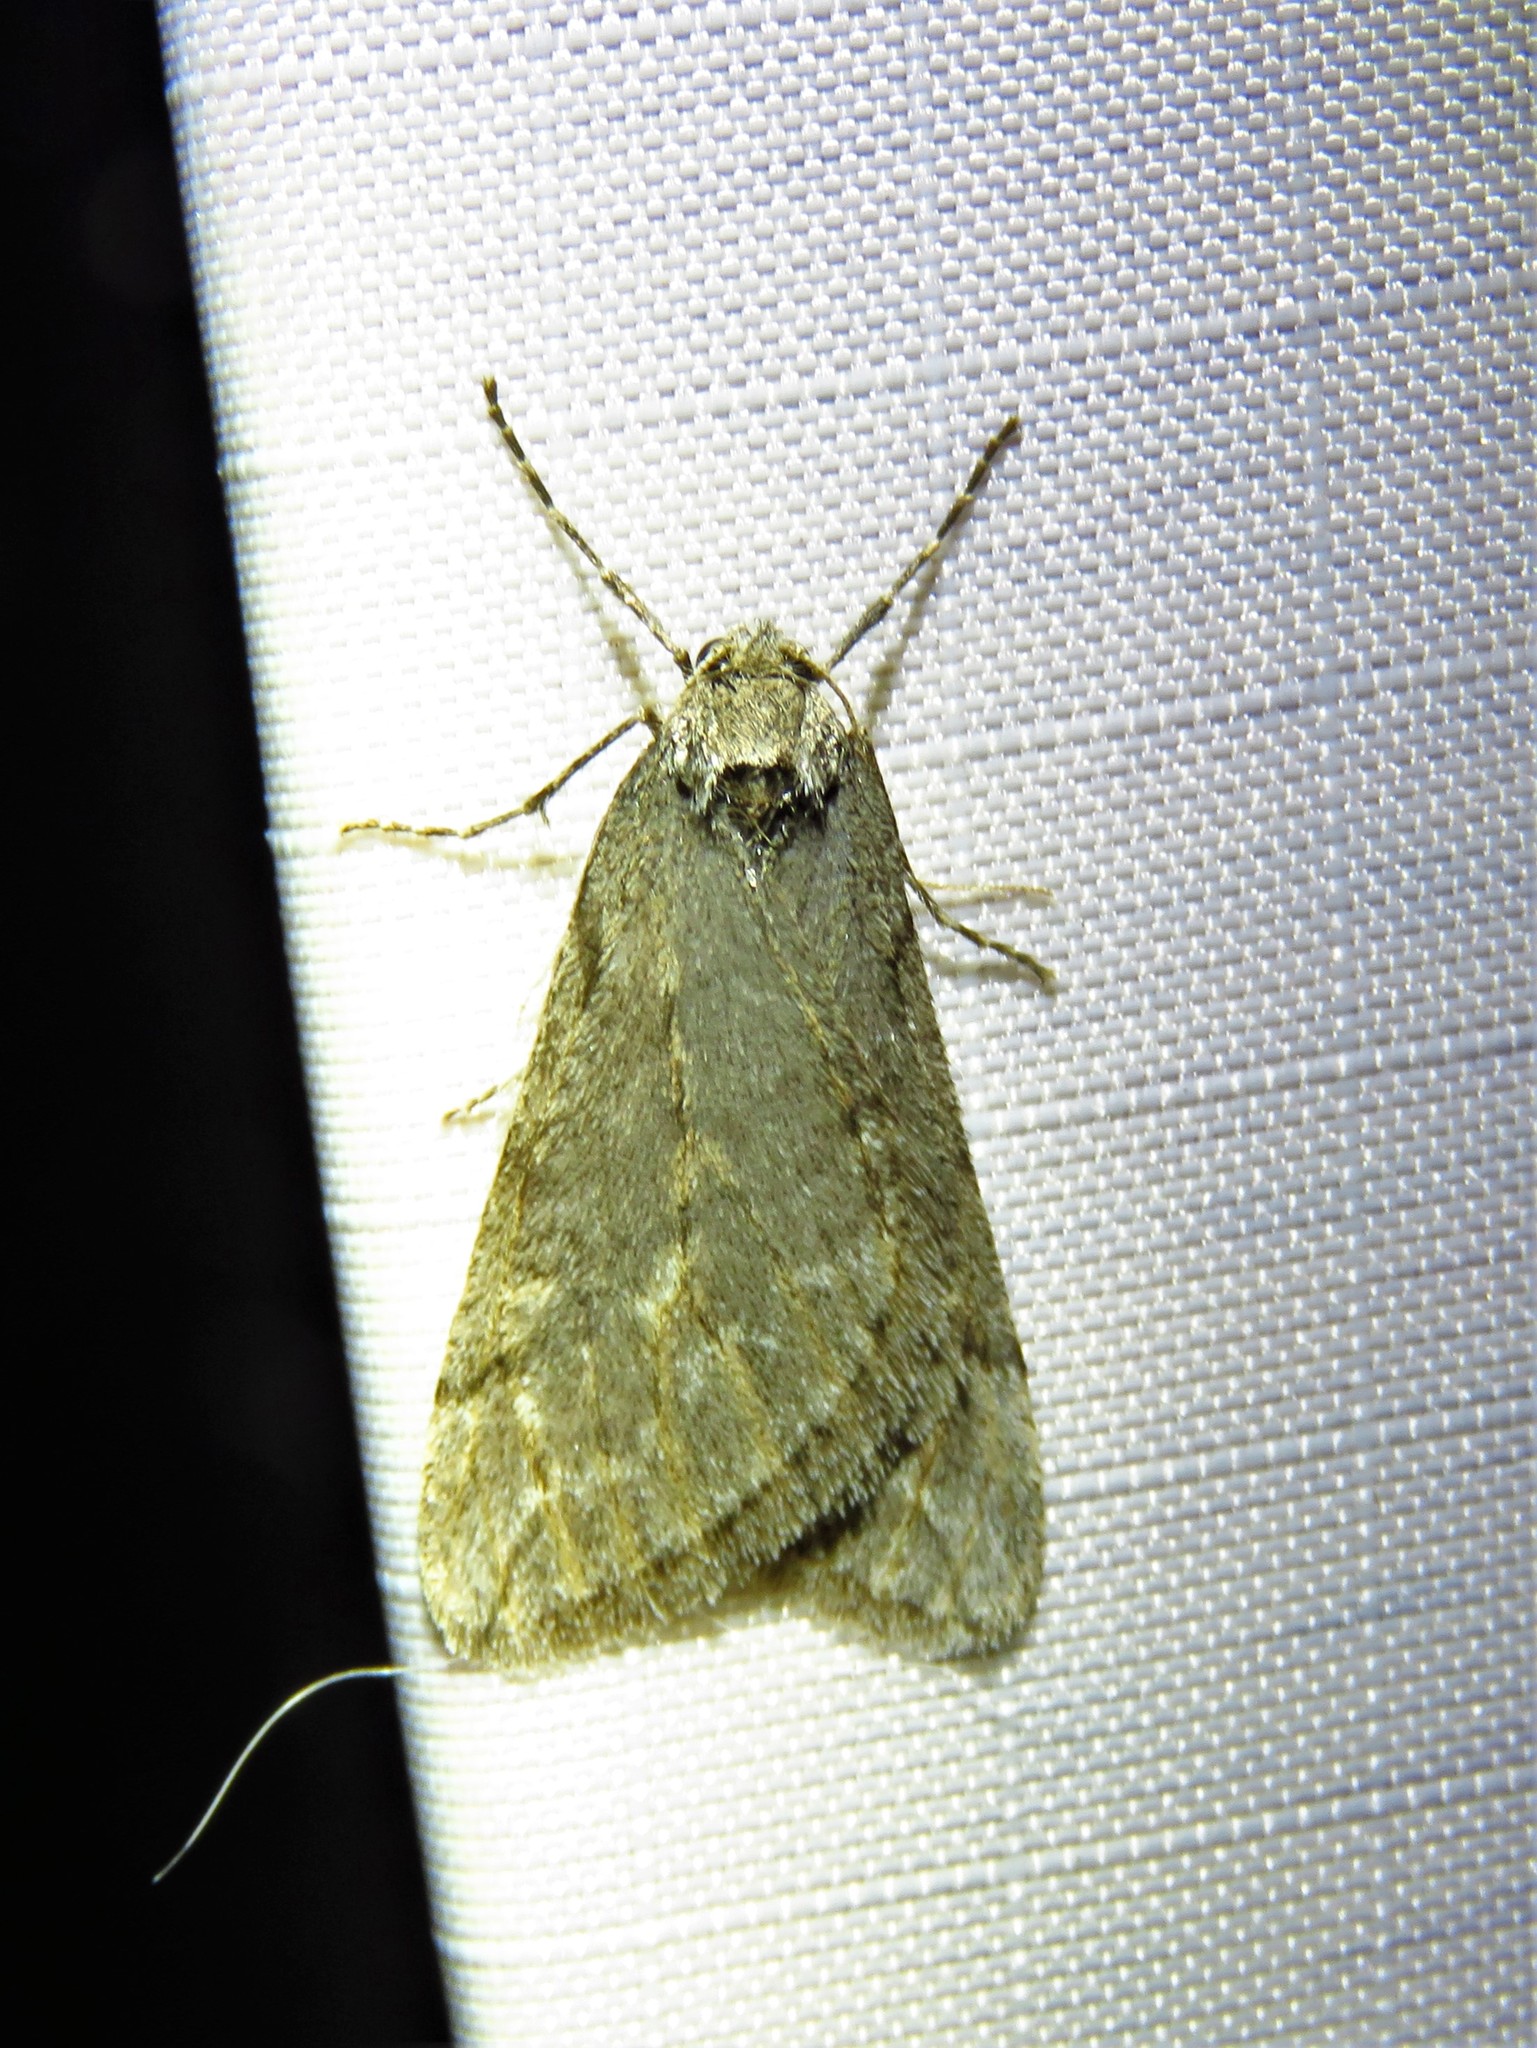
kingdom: Animalia
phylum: Arthropoda
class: Insecta
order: Lepidoptera
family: Geometridae
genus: Paleacrita
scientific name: Paleacrita vernata
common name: Spring cankerworm
